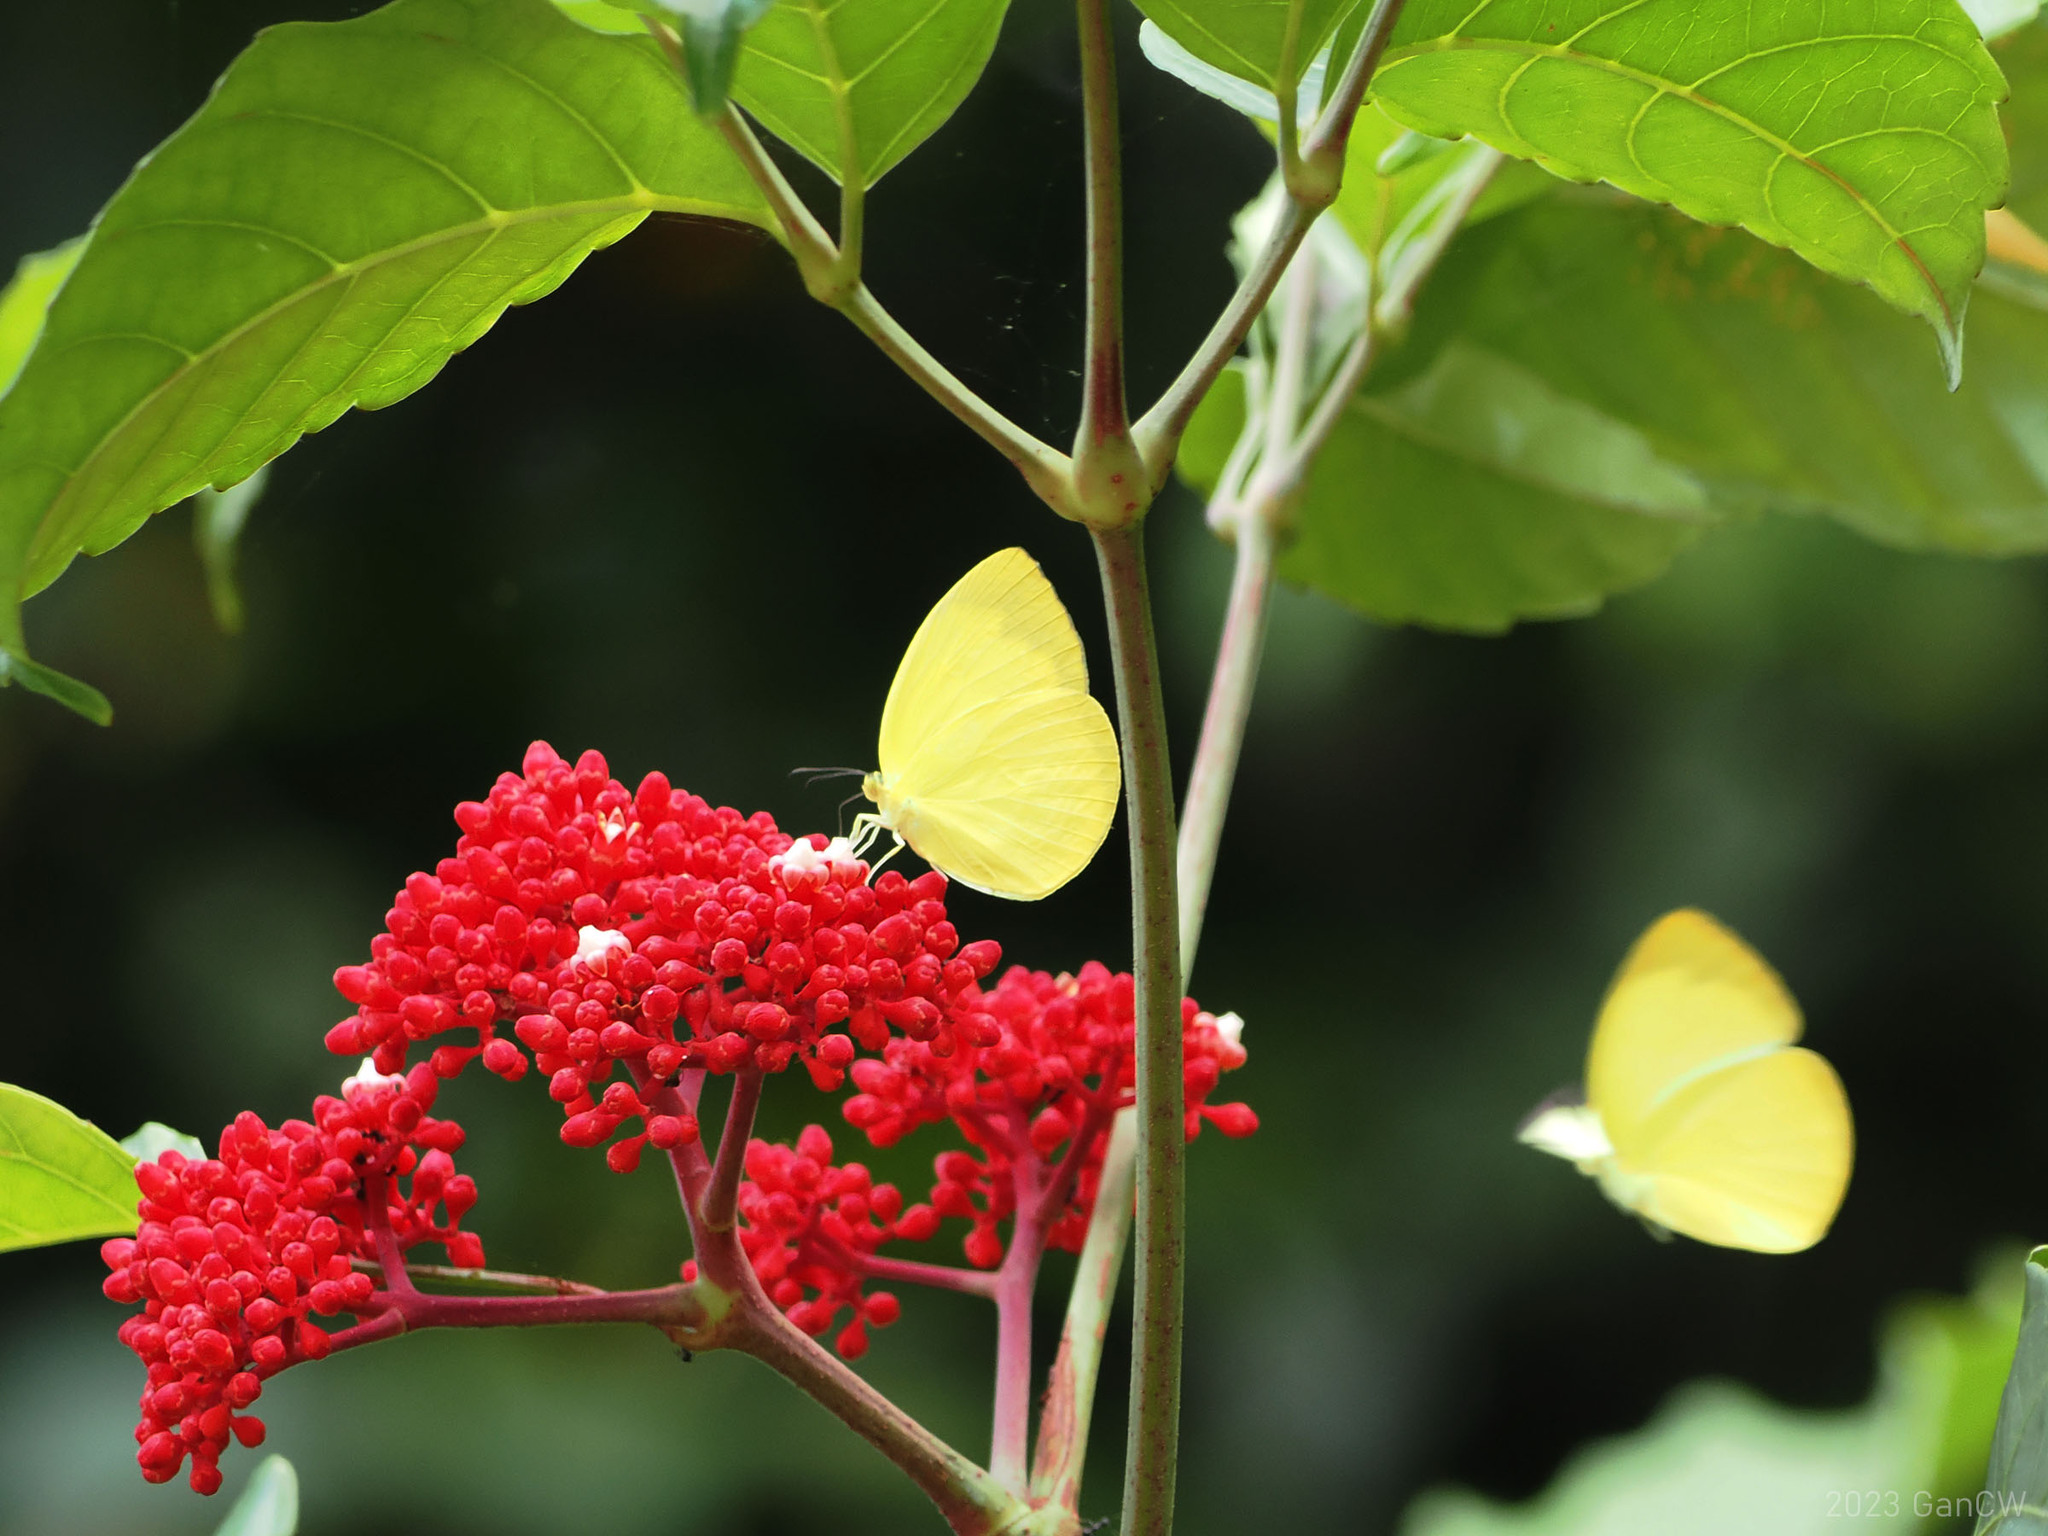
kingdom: Animalia
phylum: Arthropoda
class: Insecta
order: Lepidoptera
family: Pieridae
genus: Gandaca
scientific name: Gandaca harina
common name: Tree yellow
